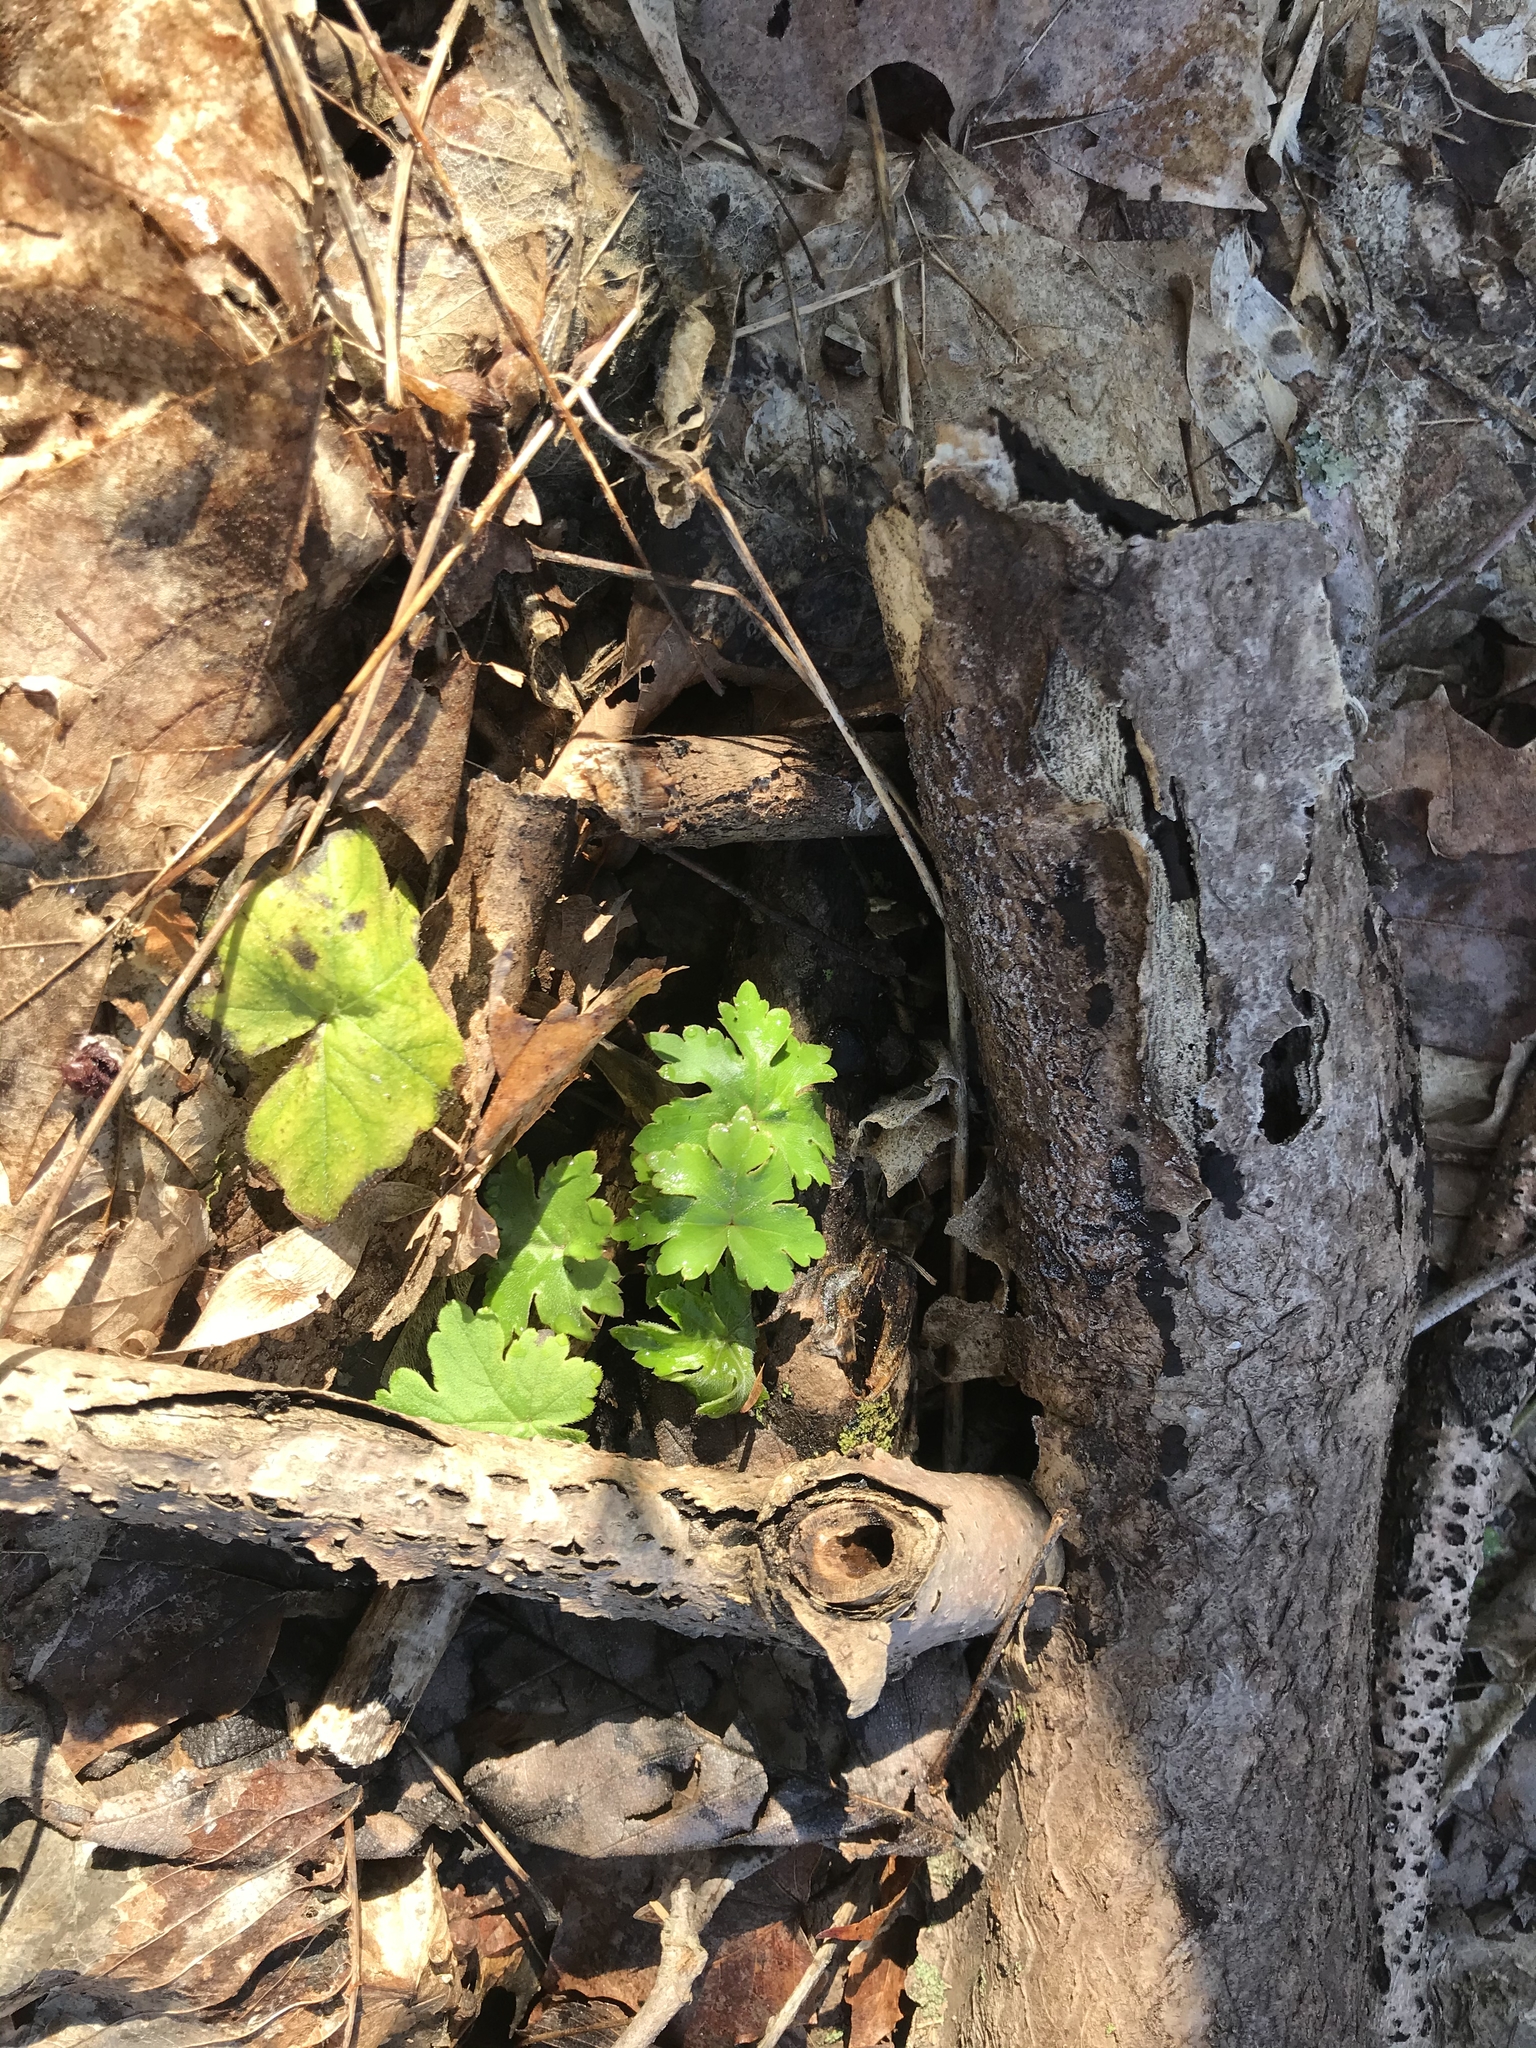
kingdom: Plantae
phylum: Tracheophyta
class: Magnoliopsida
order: Boraginales
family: Hydrophyllaceae
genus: Hydrophyllum
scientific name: Hydrophyllum canadense
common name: Canada waterleaf
